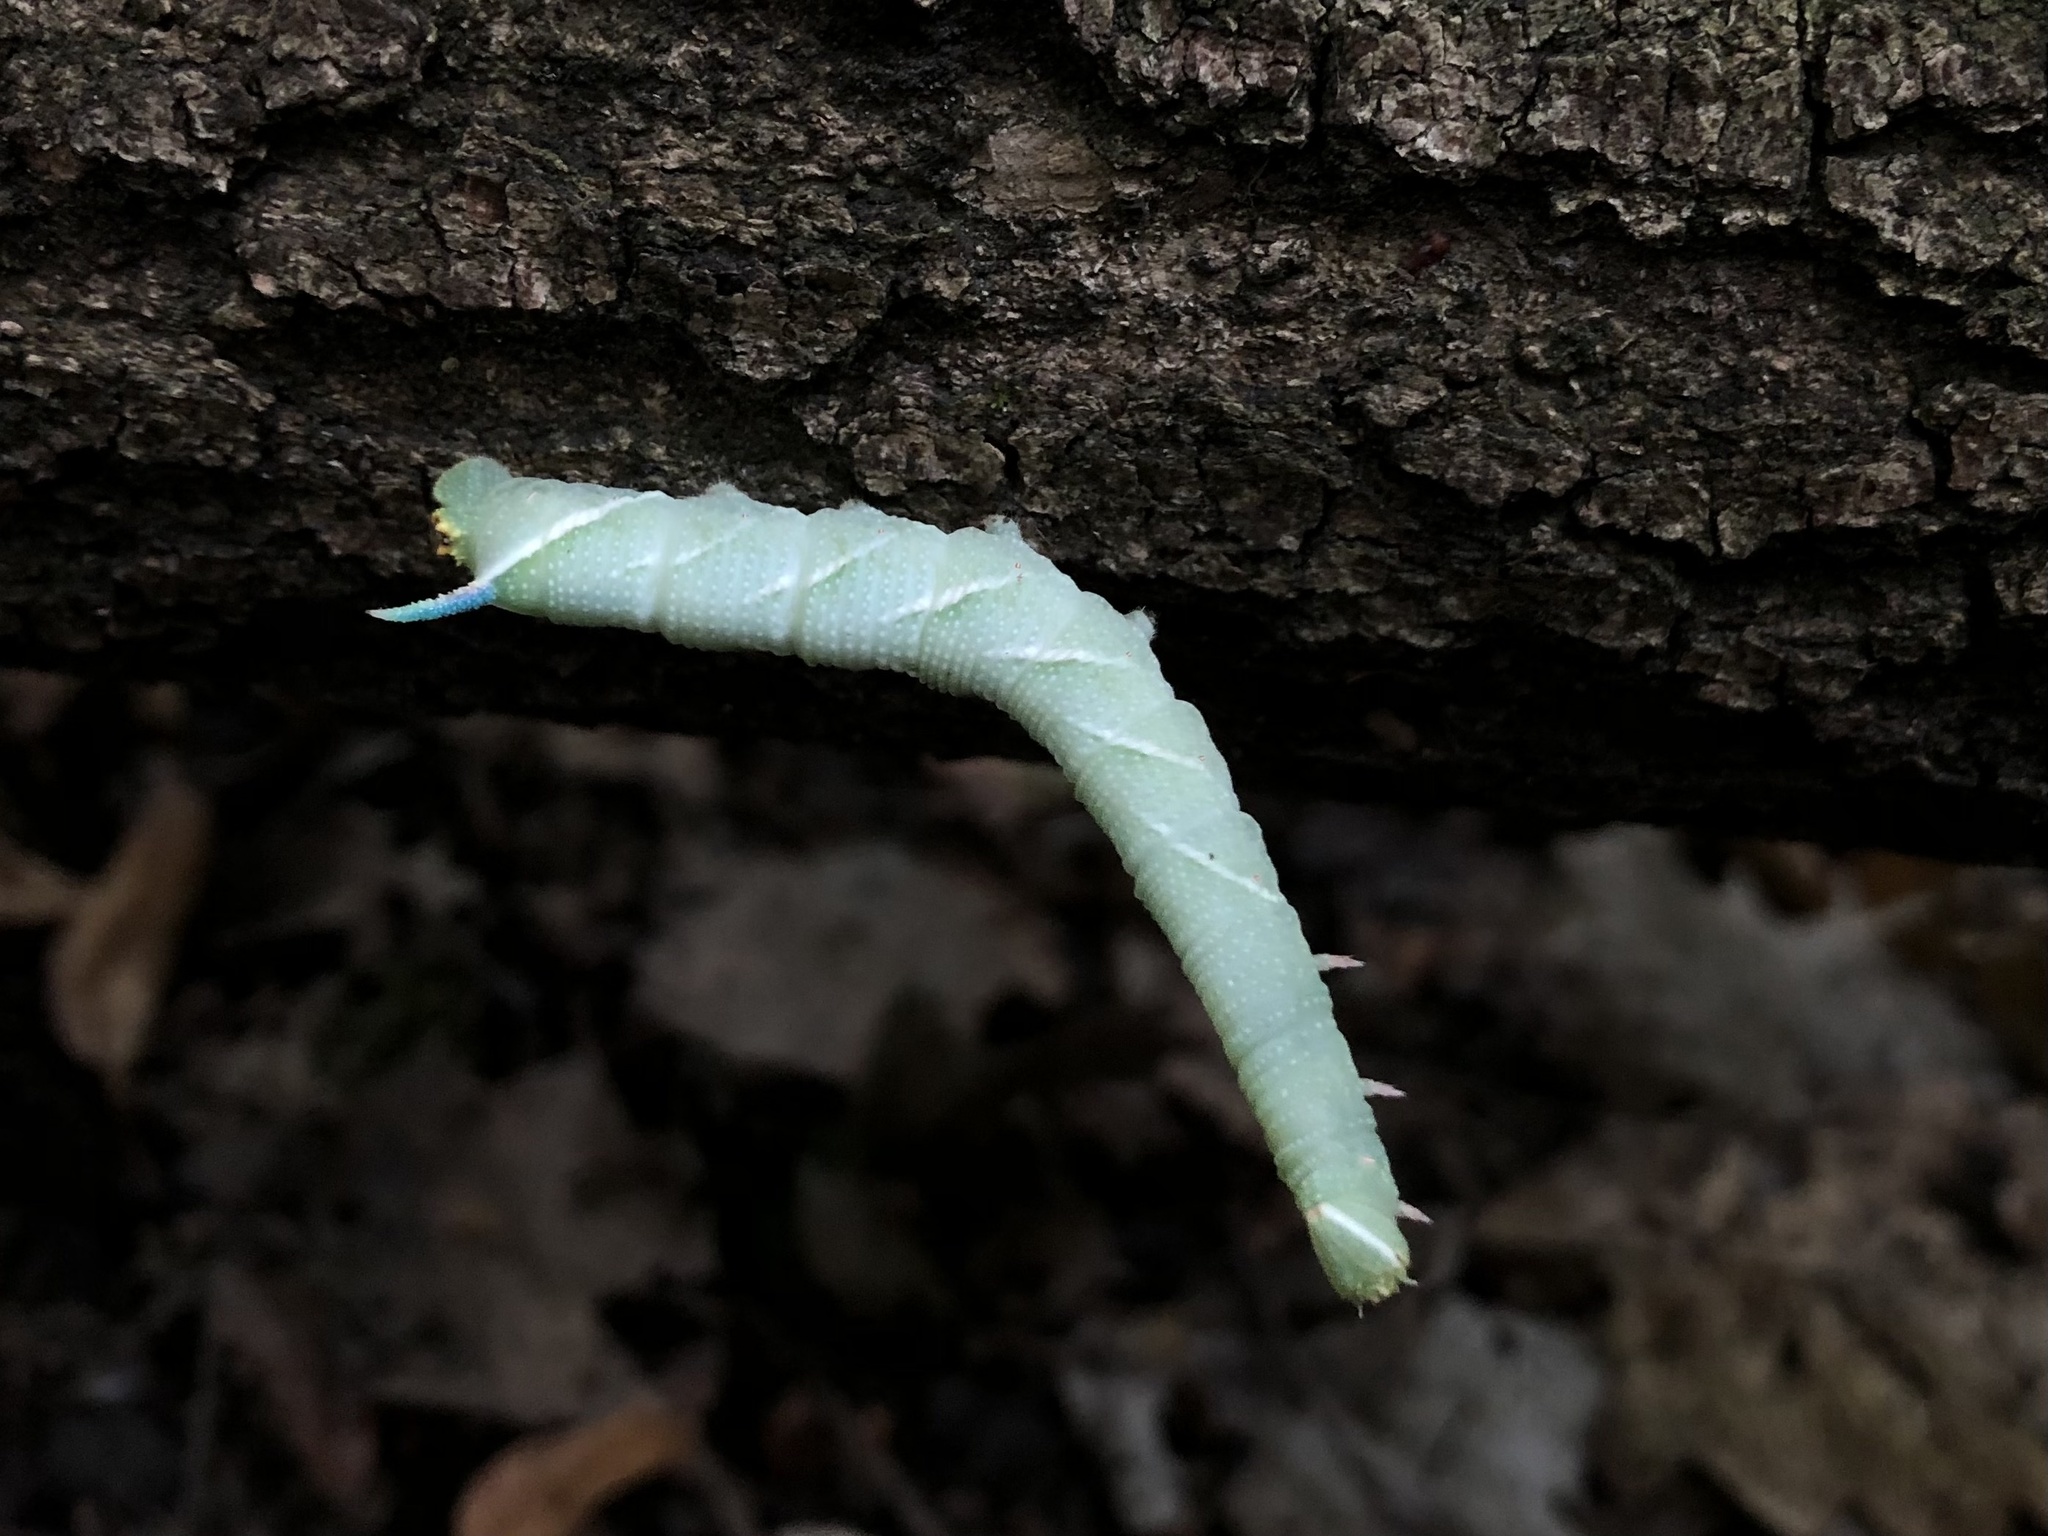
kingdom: Animalia
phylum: Arthropoda
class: Insecta
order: Lepidoptera
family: Sphingidae
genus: Mimas
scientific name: Mimas tiliae
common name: Lime hawk-moth
